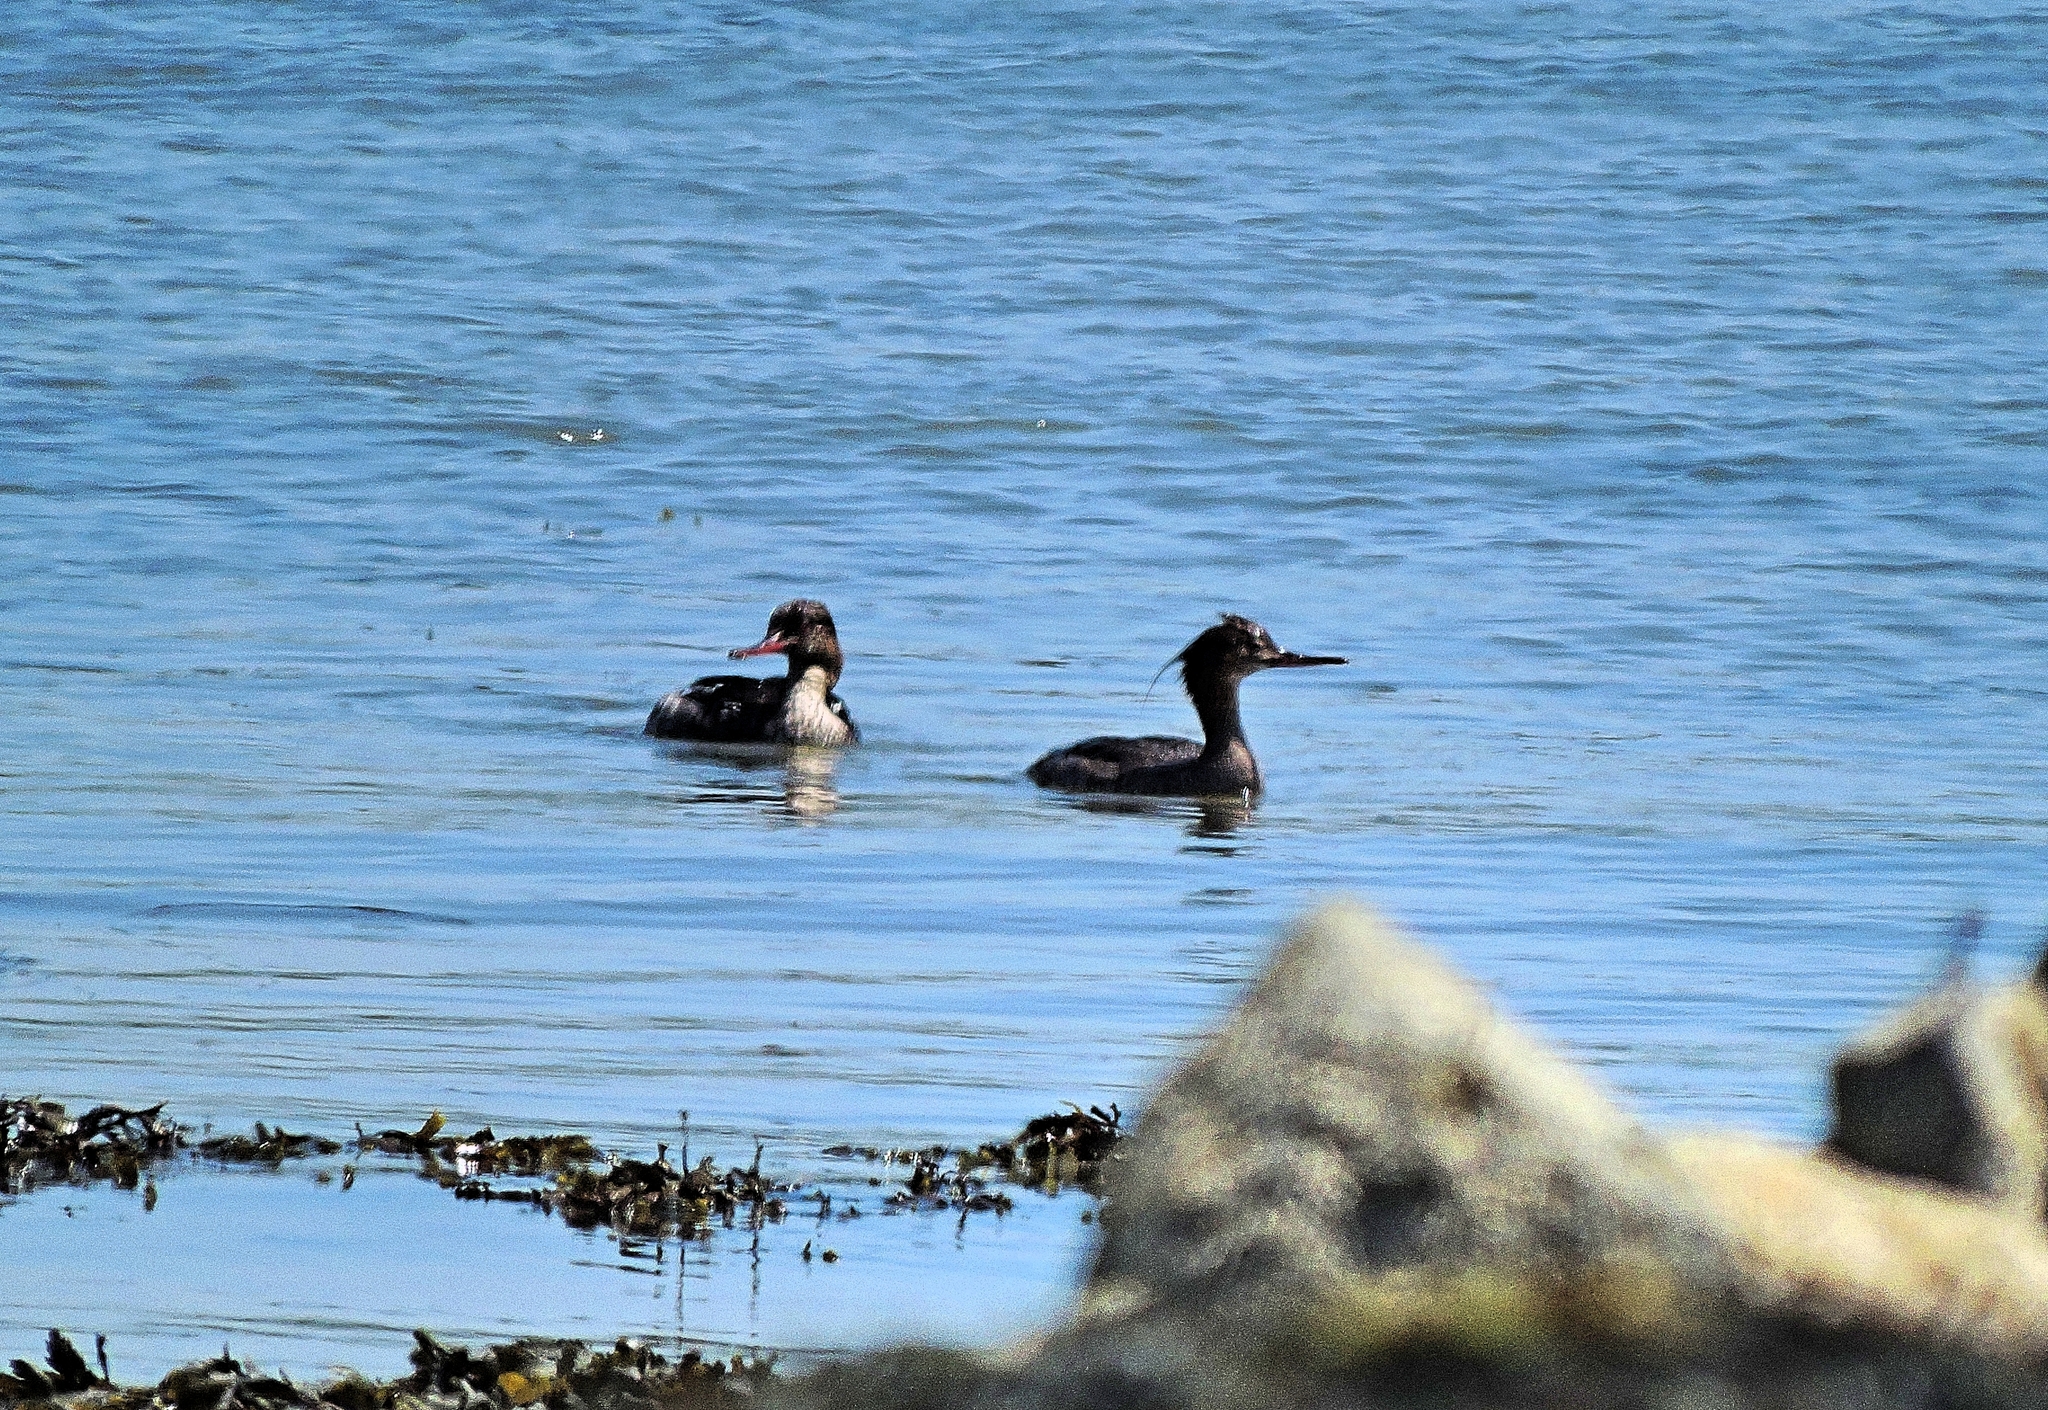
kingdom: Animalia
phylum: Chordata
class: Aves
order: Anseriformes
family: Anatidae
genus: Mergus
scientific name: Mergus serrator
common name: Red-breasted merganser
